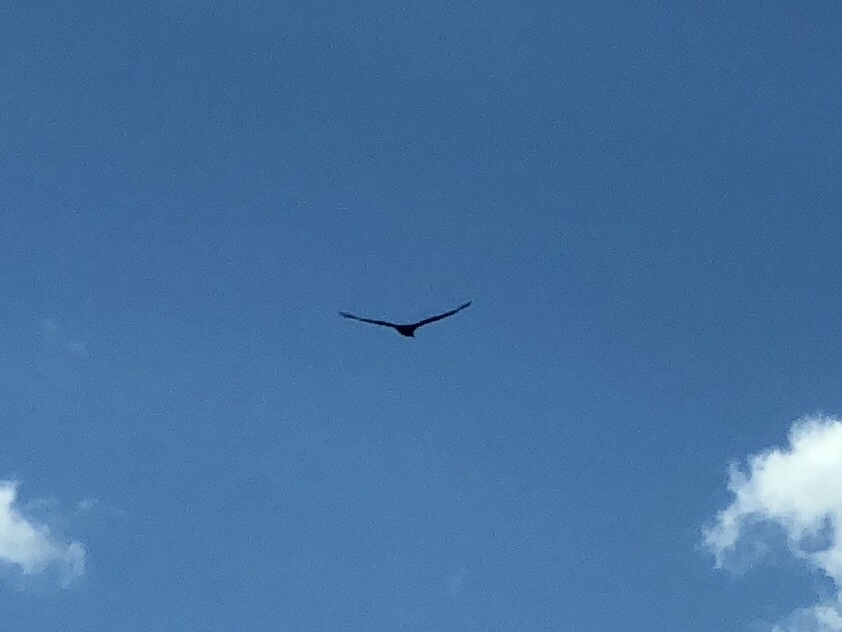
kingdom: Animalia
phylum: Chordata
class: Aves
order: Accipitriformes
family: Cathartidae
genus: Cathartes
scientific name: Cathartes aura
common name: Turkey vulture
